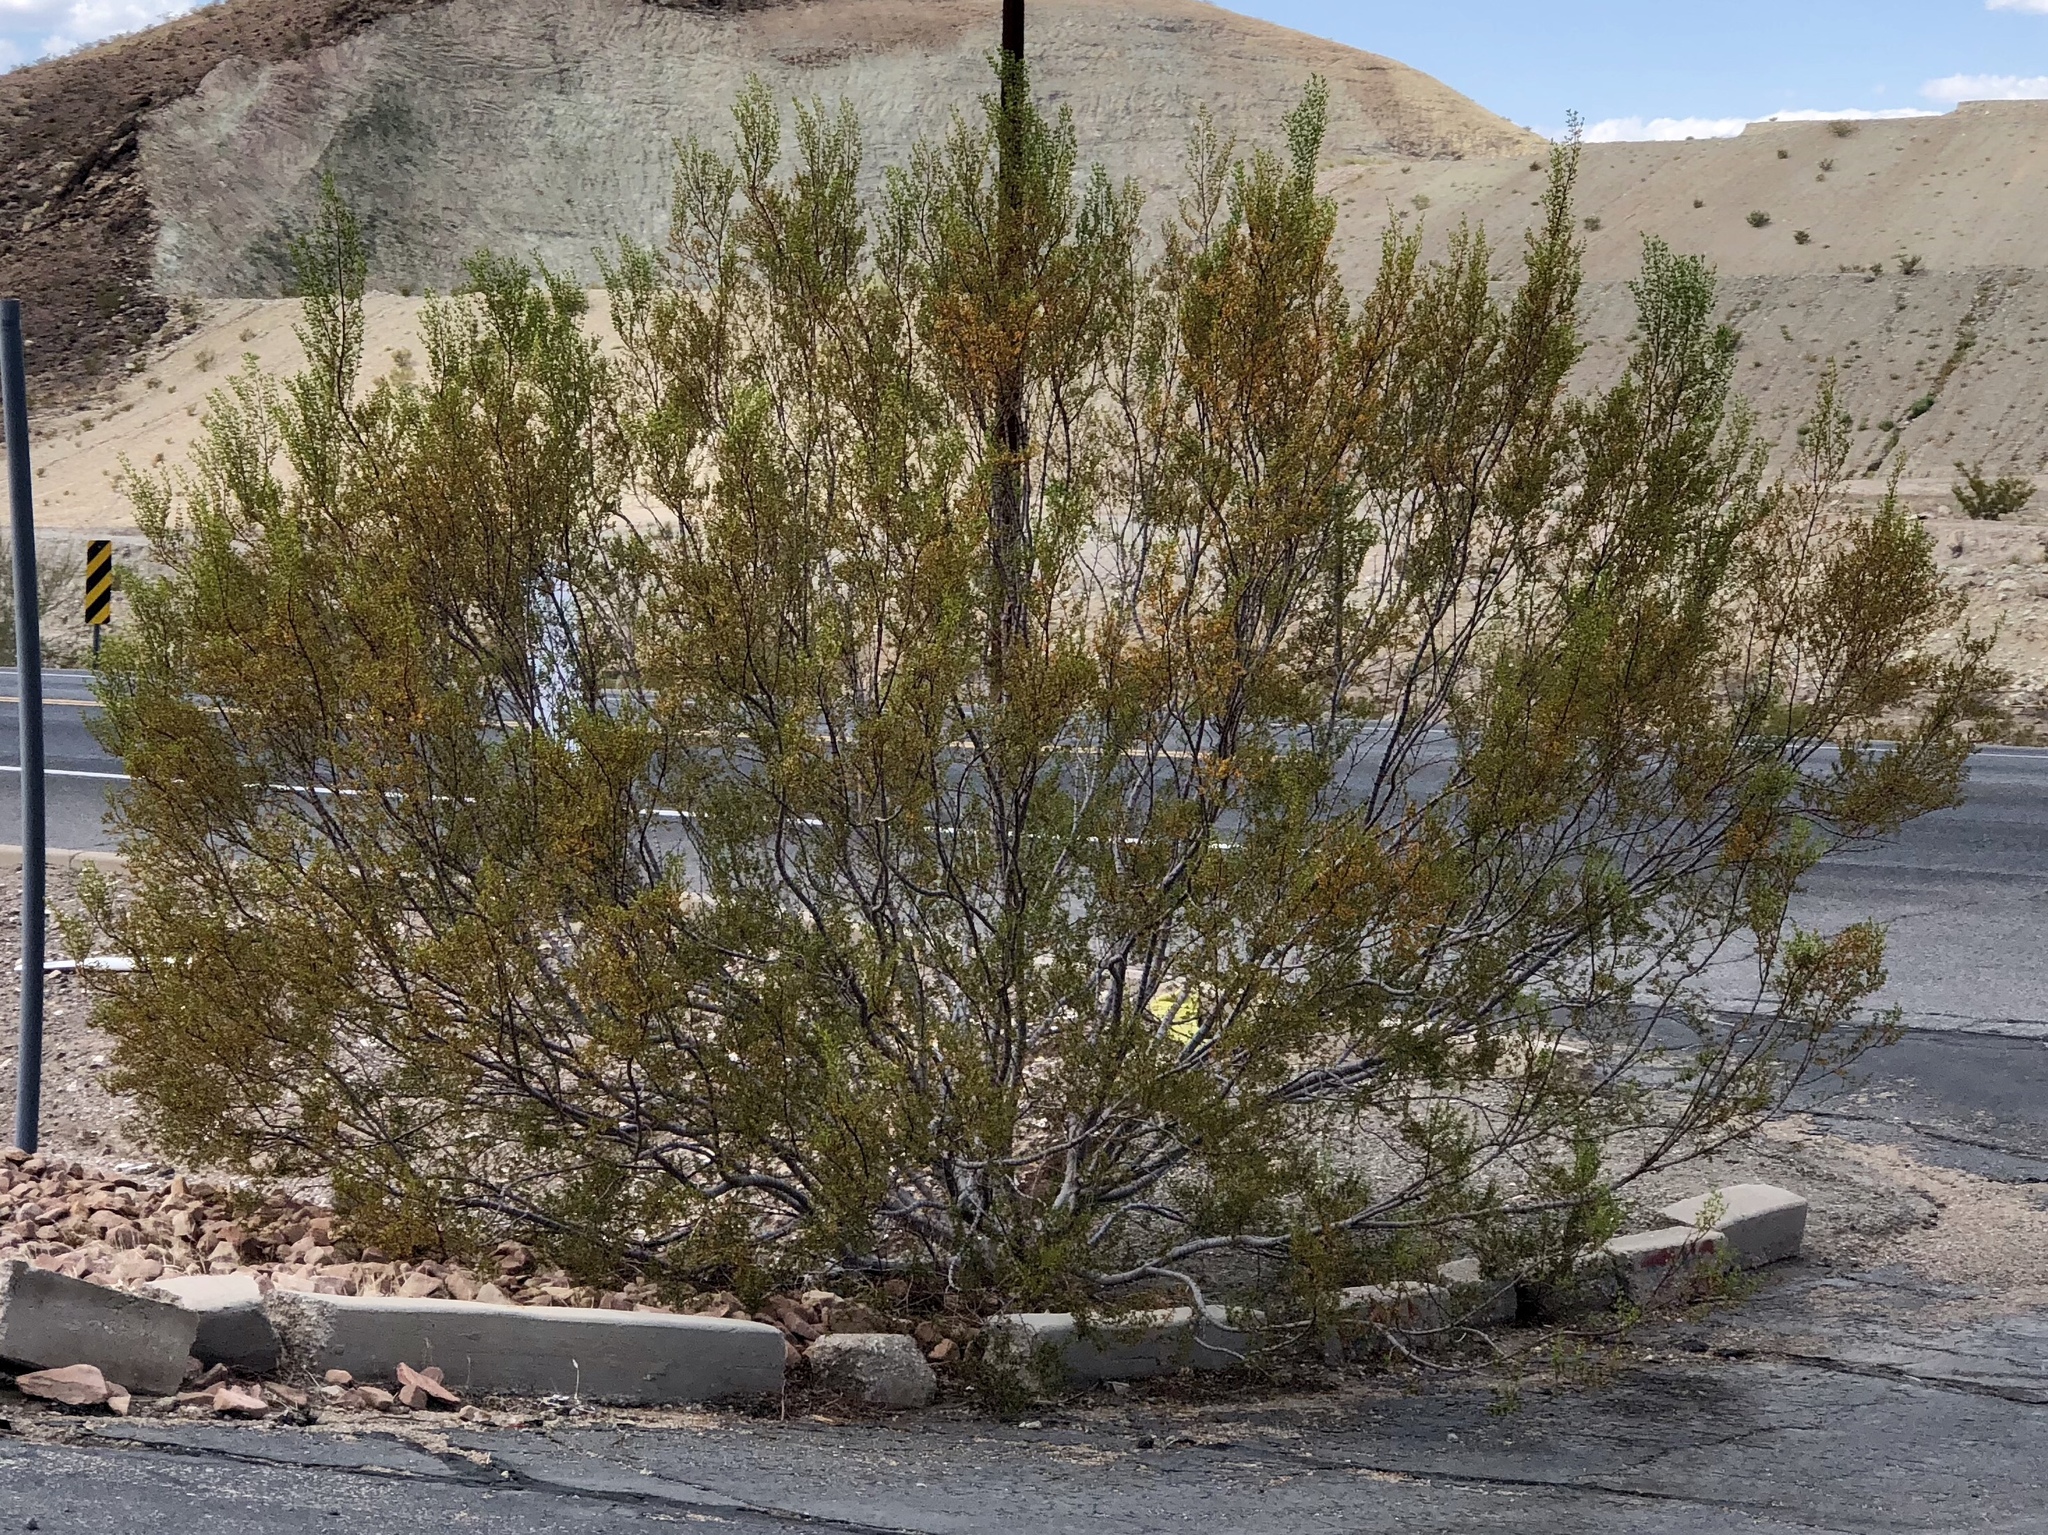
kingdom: Plantae
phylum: Tracheophyta
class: Magnoliopsida
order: Zygophyllales
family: Zygophyllaceae
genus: Larrea
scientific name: Larrea tridentata
